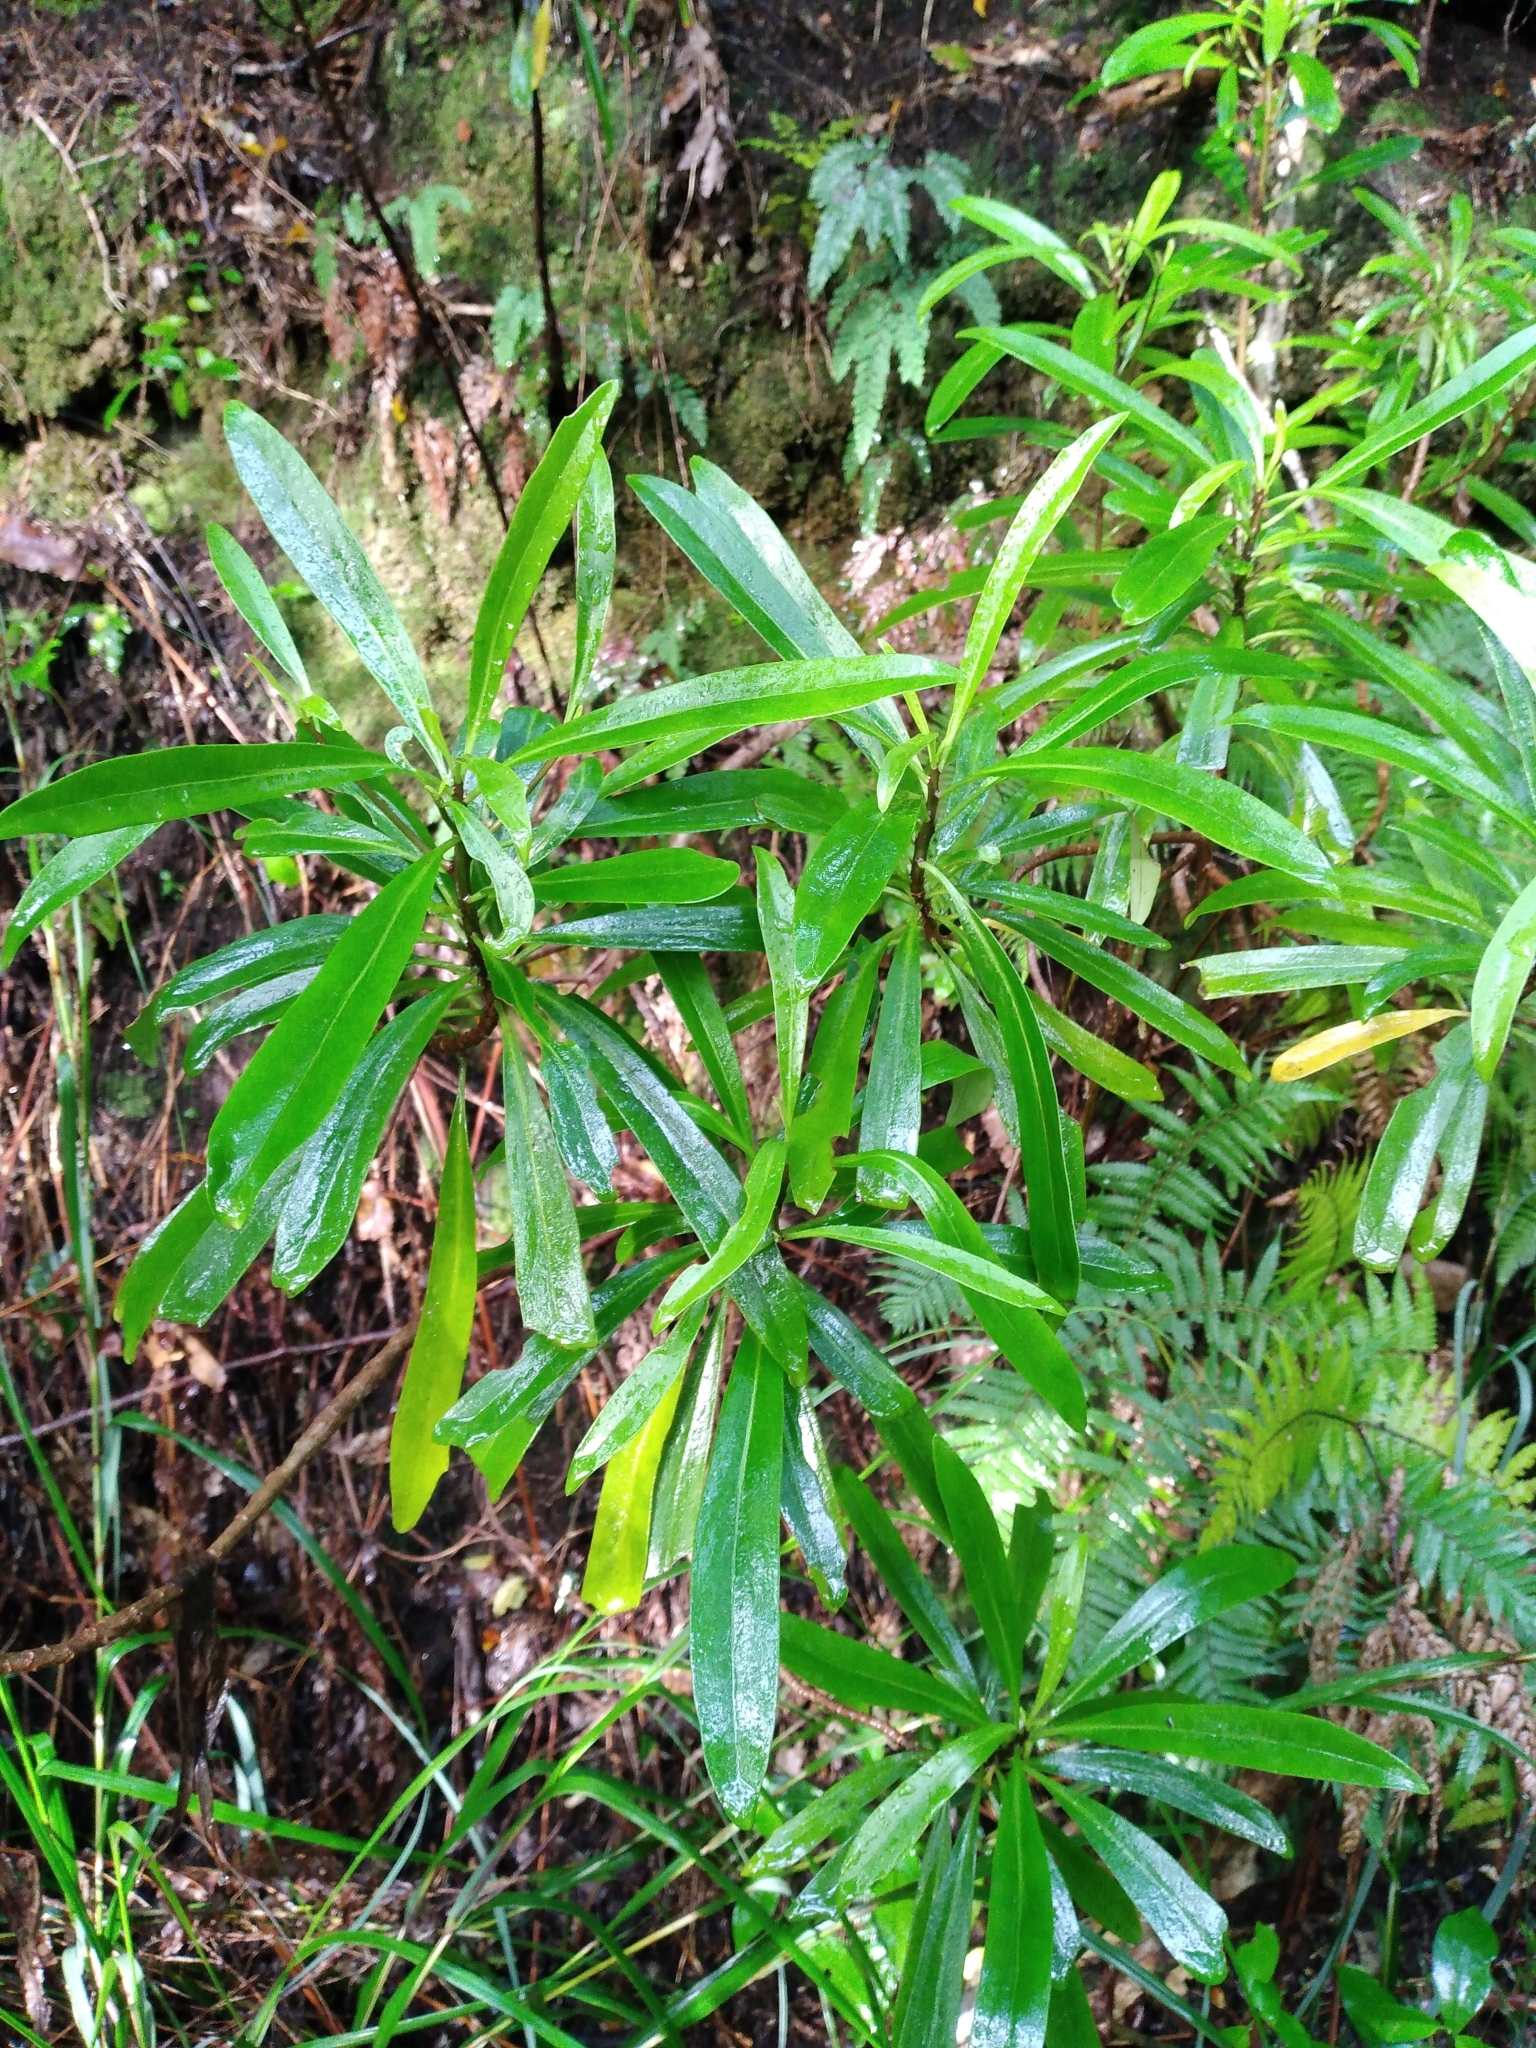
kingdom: Plantae
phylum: Tracheophyta
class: Magnoliopsida
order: Asterales
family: Asteraceae
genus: Brachyglottis
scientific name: Brachyglottis kirkii
